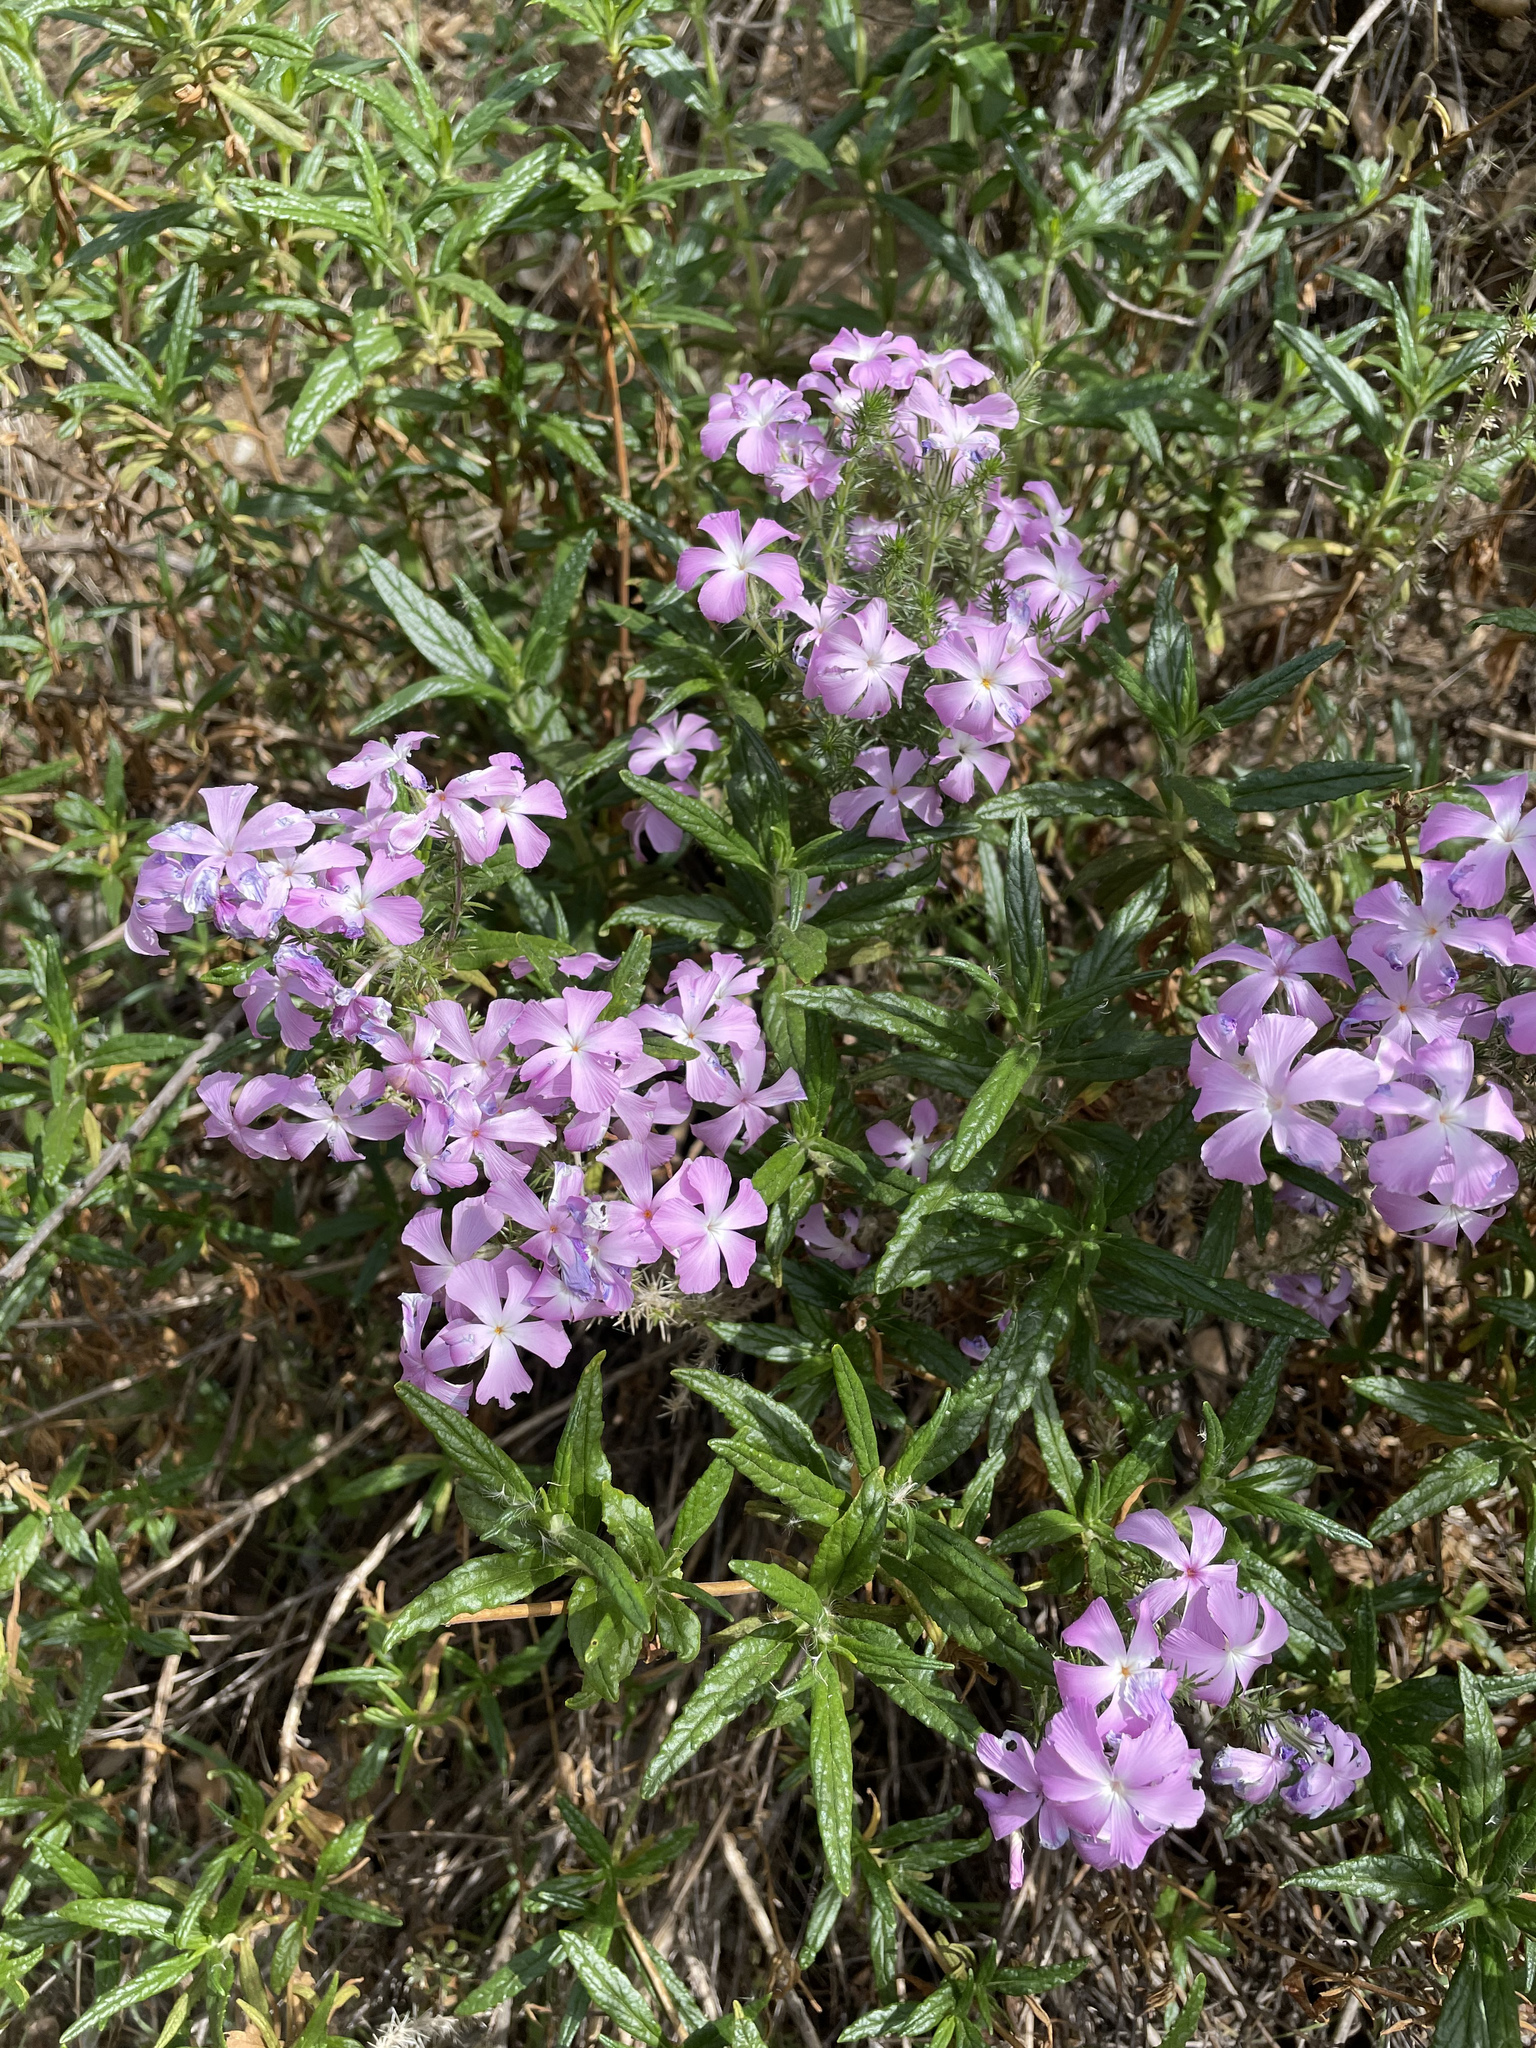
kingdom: Plantae
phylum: Tracheophyta
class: Magnoliopsida
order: Ericales
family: Polemoniaceae
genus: Linanthus
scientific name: Linanthus californicus
